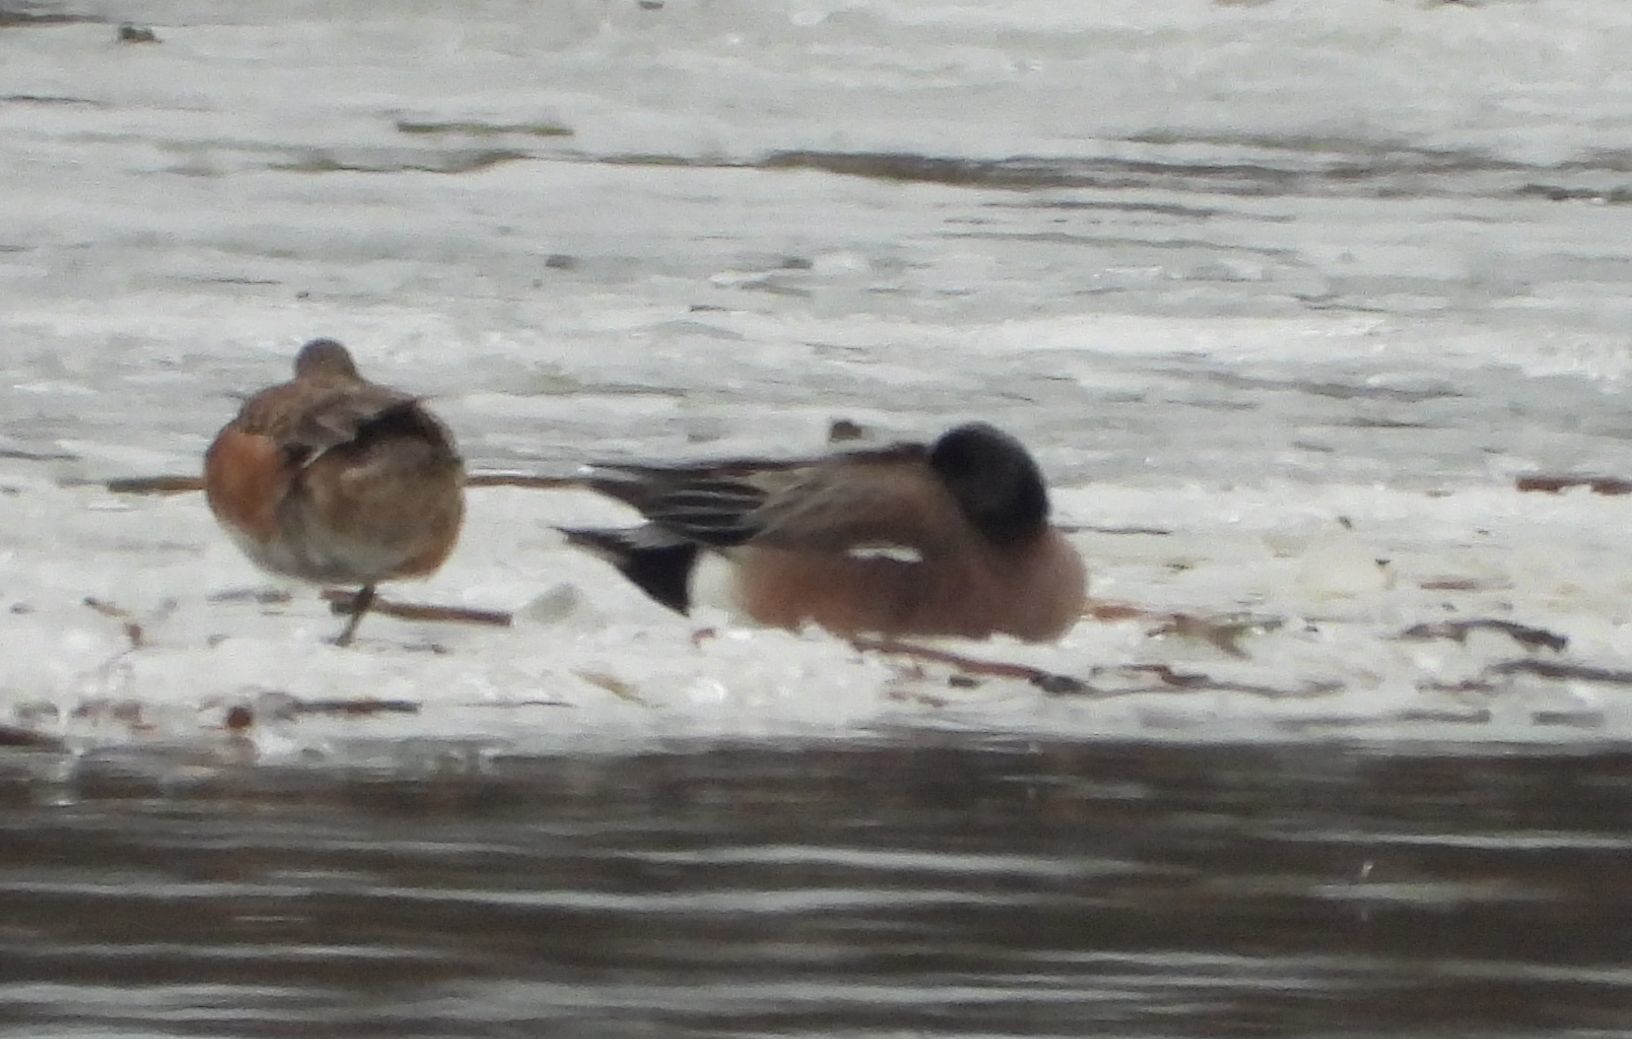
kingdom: Animalia
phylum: Chordata
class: Aves
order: Anseriformes
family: Anatidae
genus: Mareca
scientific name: Mareca americana
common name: American wigeon
